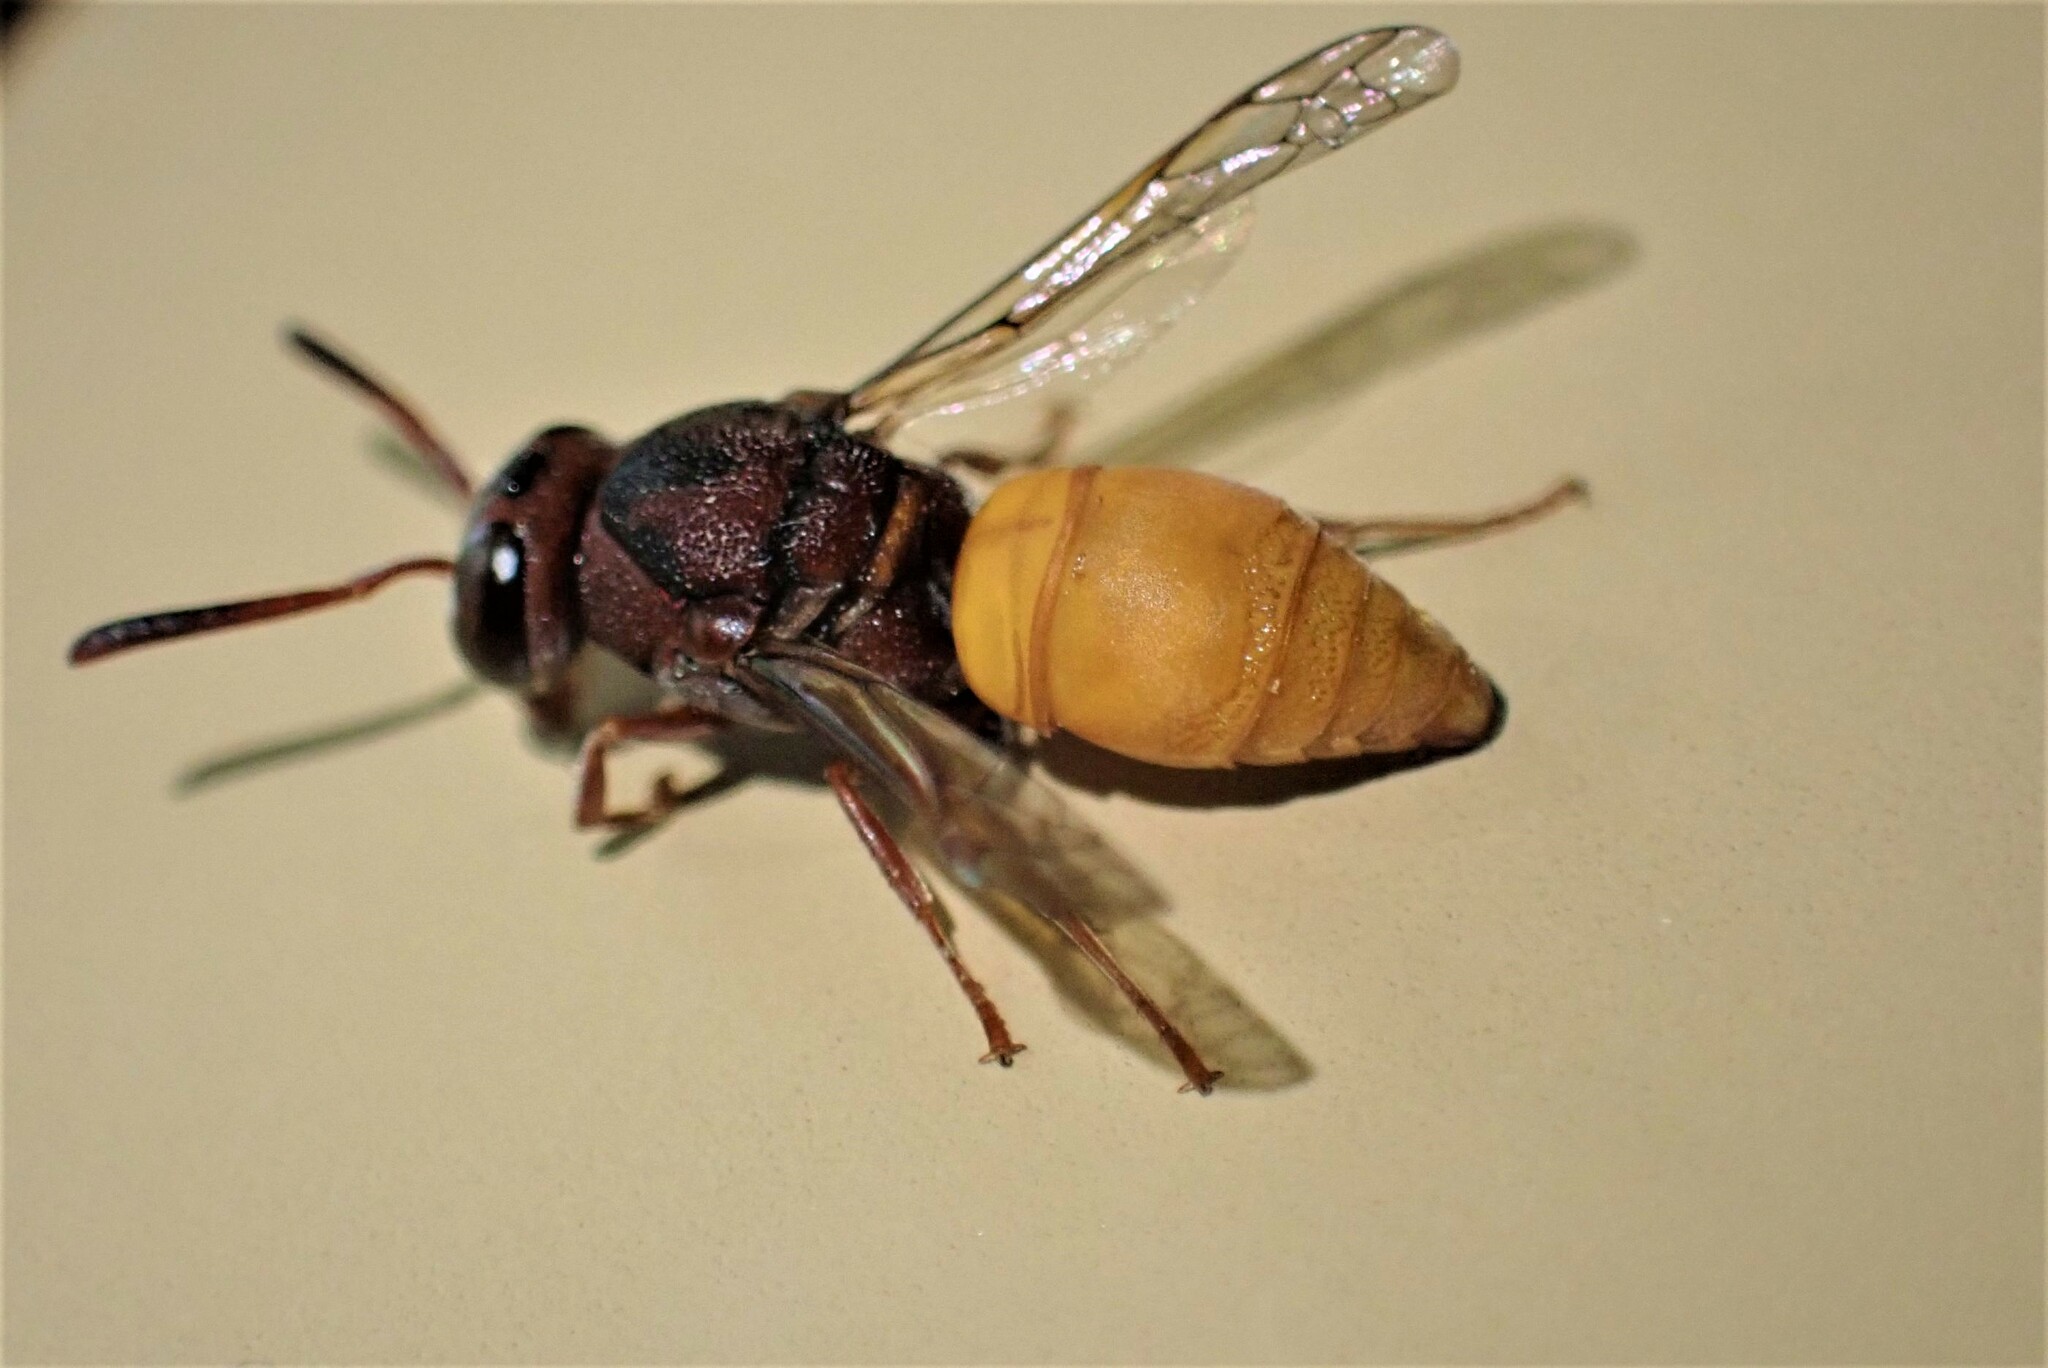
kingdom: Animalia
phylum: Arthropoda
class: Insecta
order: Hymenoptera
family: Eumenidae
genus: Proepipona
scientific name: Proepipona
